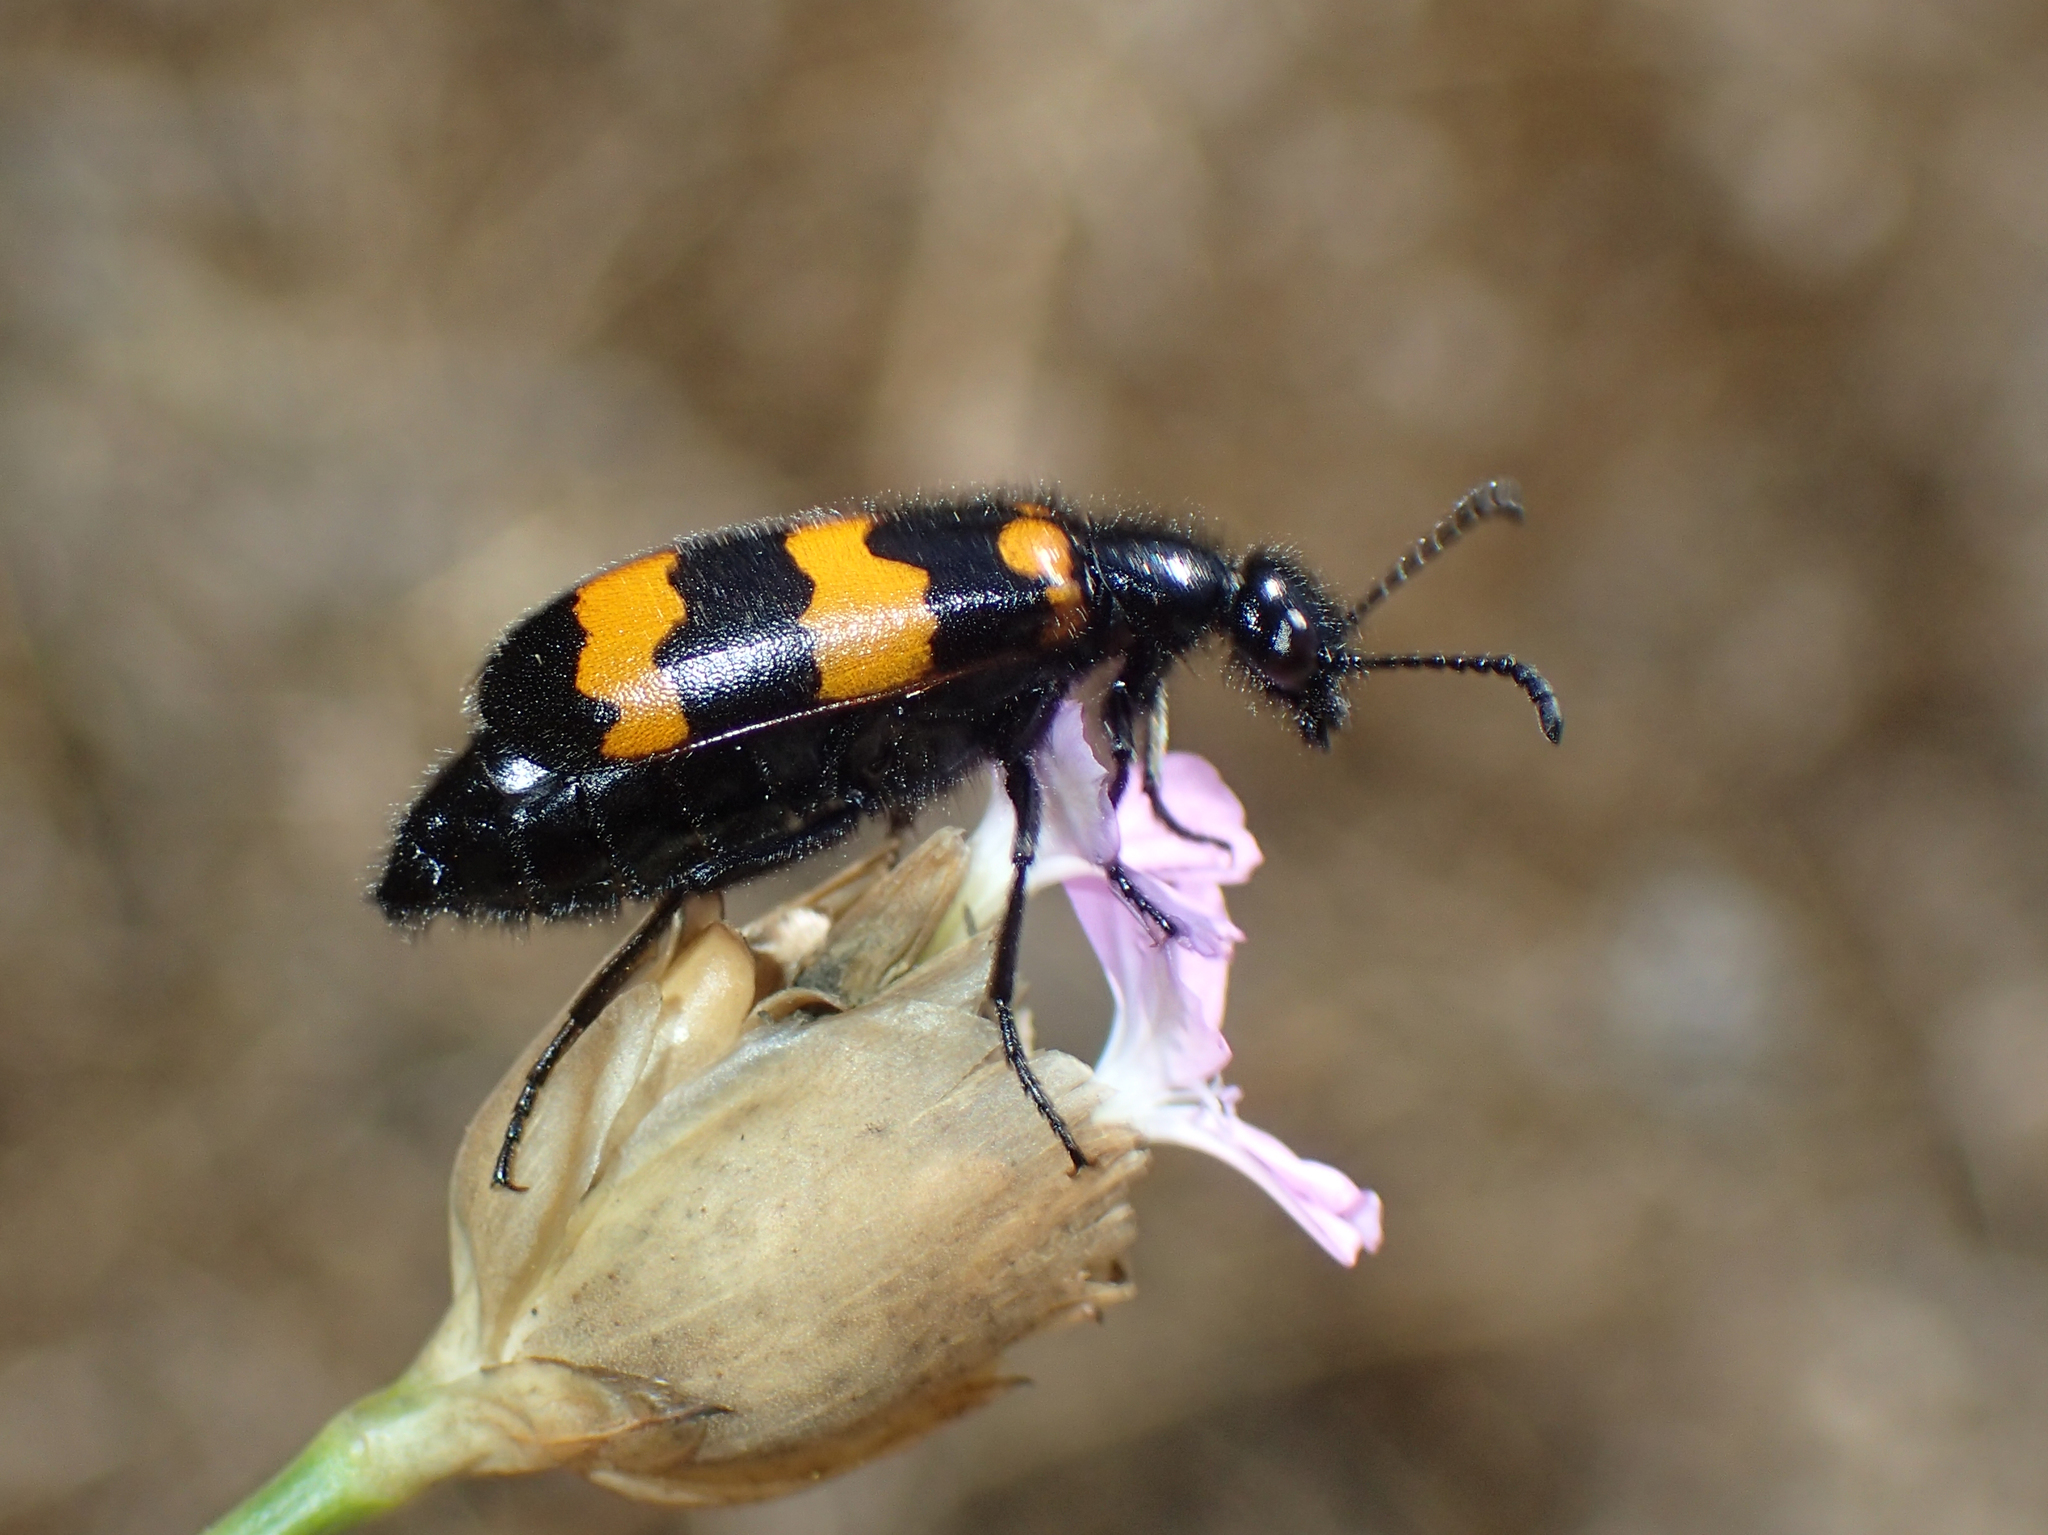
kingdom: Animalia
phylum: Arthropoda
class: Insecta
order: Coleoptera
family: Meloidae
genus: Mylabris
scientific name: Mylabris variabilis
